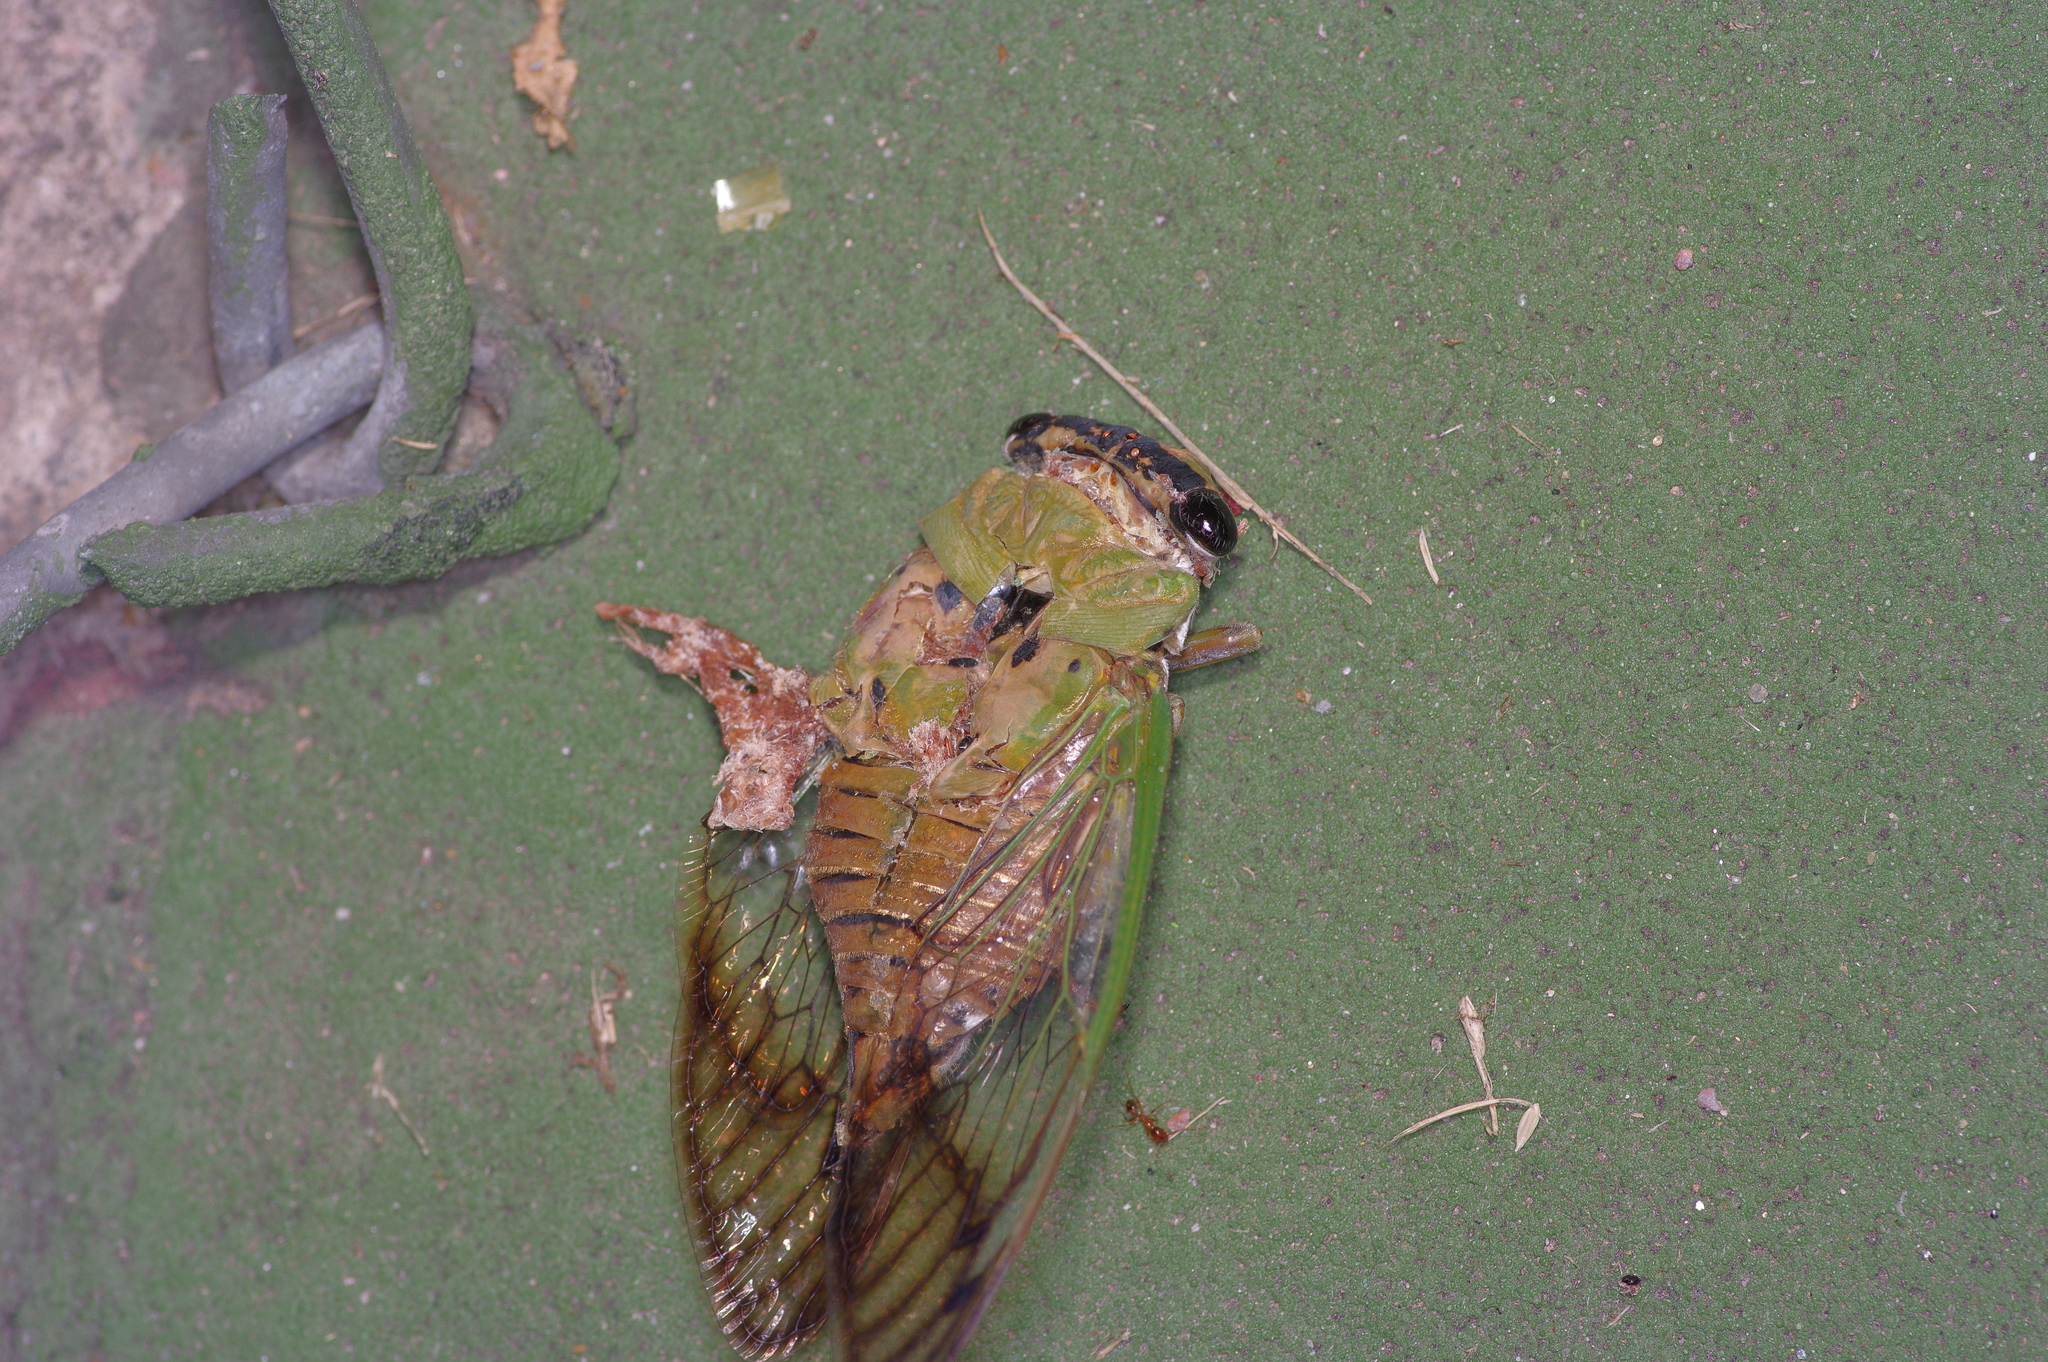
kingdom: Animalia
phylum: Arthropoda
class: Insecta
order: Hemiptera
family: Cicadidae
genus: Neotibicen
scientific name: Neotibicen superbus
